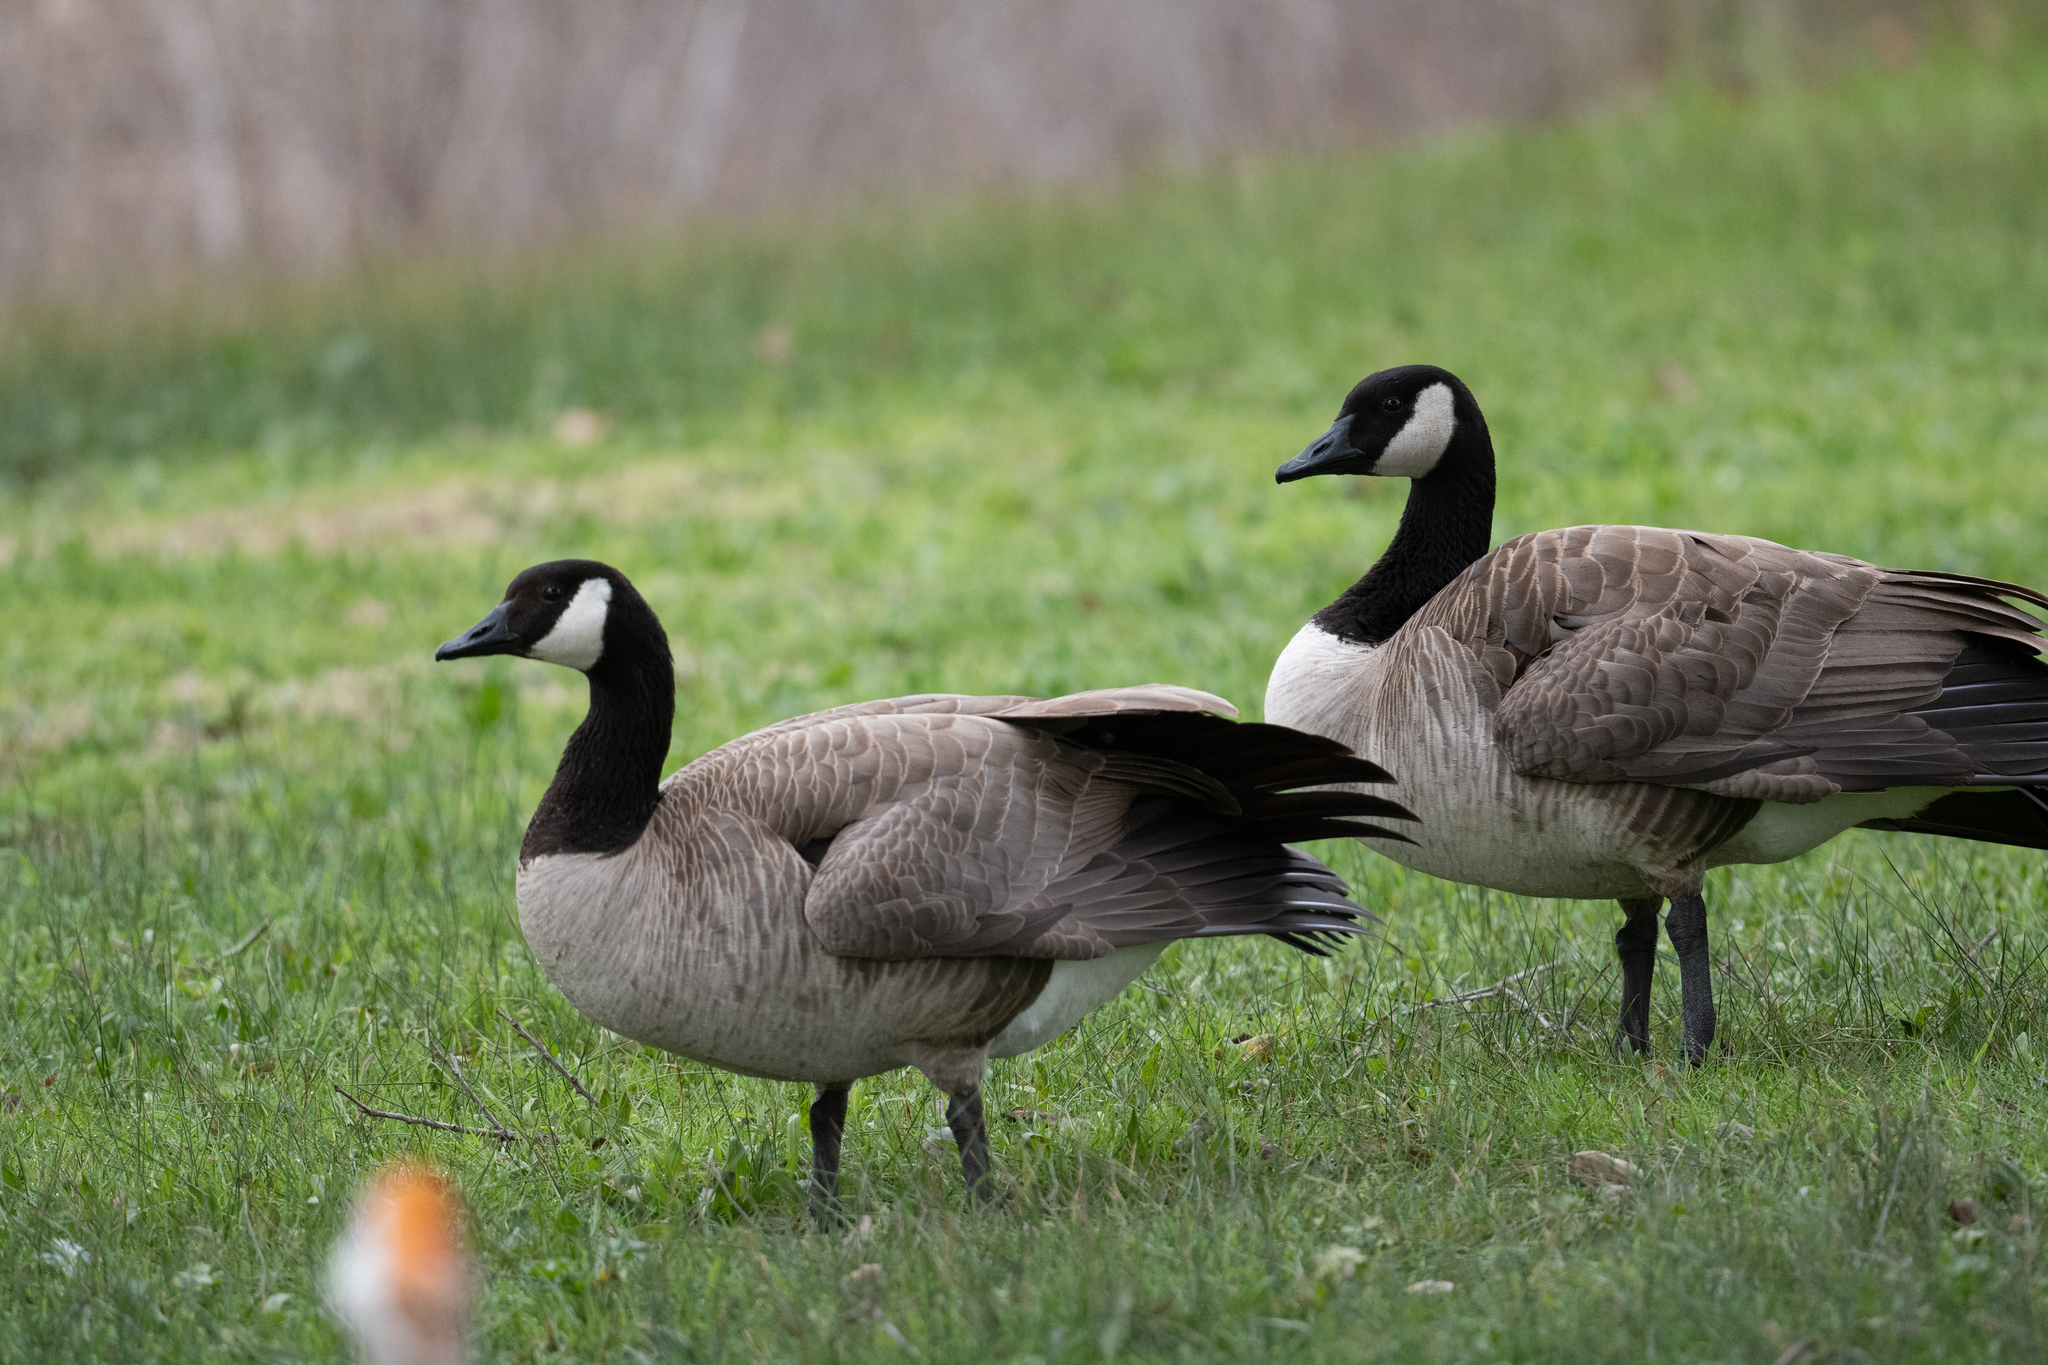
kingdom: Animalia
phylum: Chordata
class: Aves
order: Anseriformes
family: Anatidae
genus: Branta
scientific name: Branta canadensis
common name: Canada goose
